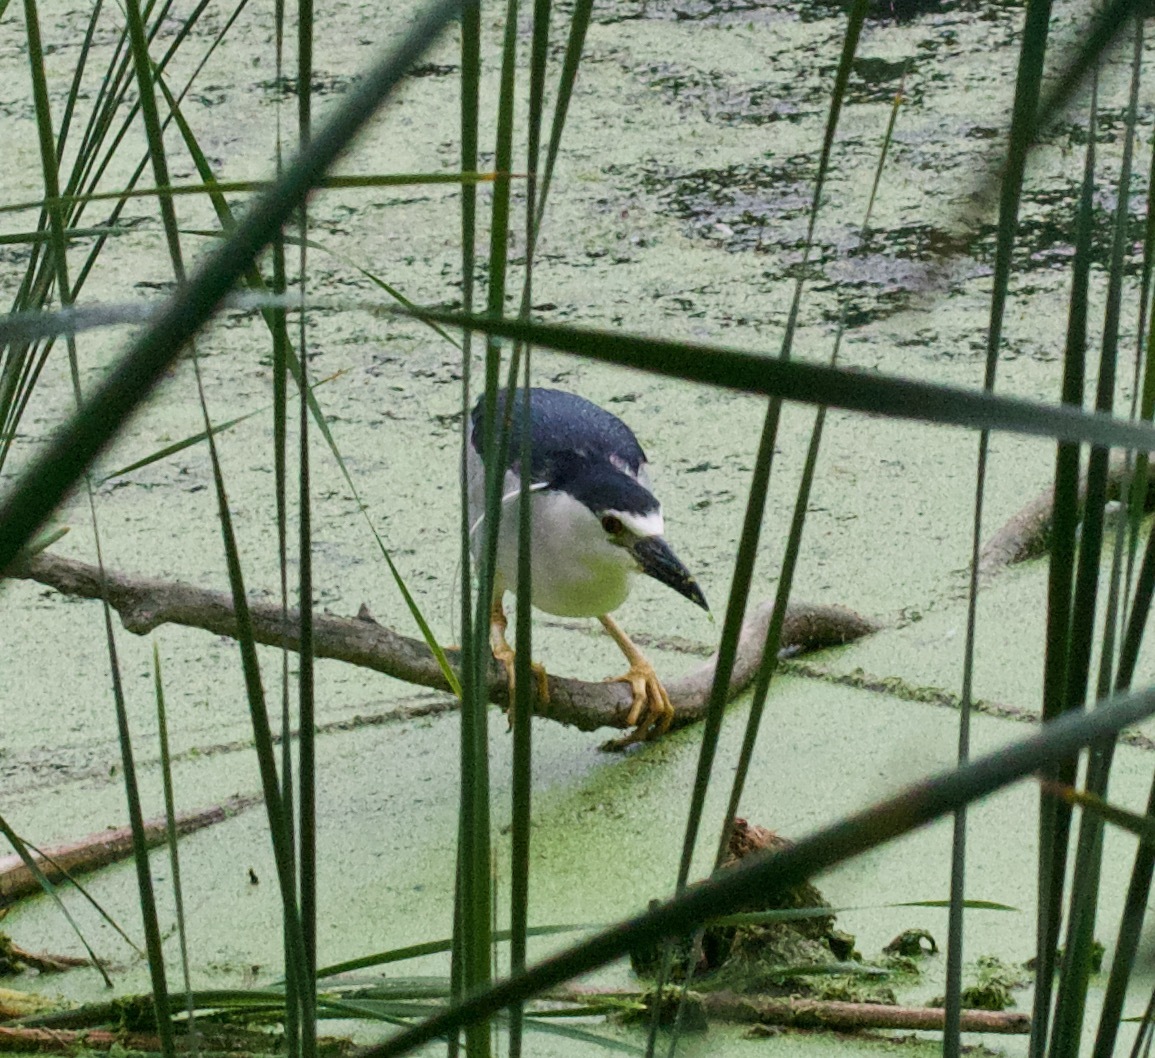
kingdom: Animalia
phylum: Chordata
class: Aves
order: Pelecaniformes
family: Ardeidae
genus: Nycticorax
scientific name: Nycticorax nycticorax
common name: Black-crowned night heron
